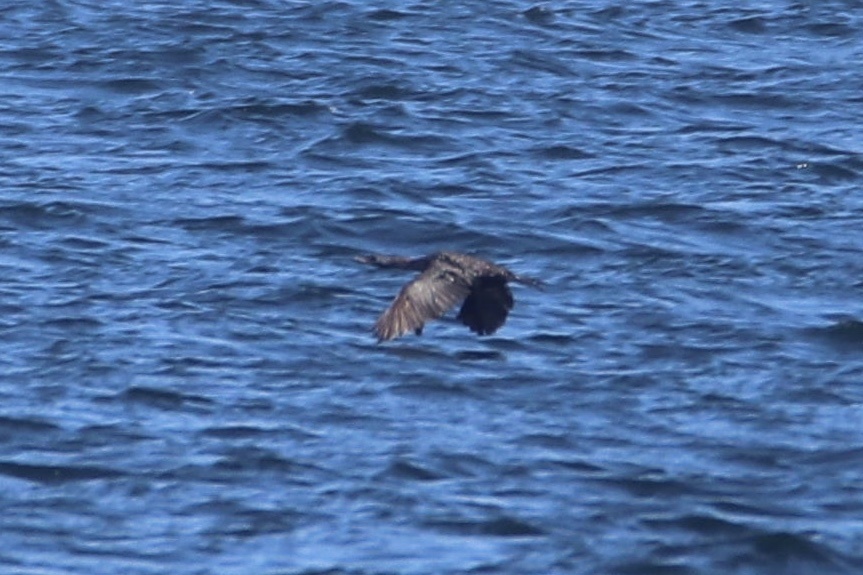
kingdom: Animalia
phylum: Chordata
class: Aves
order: Suliformes
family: Phalacrocoracidae
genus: Phalacrocorax
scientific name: Phalacrocorax pelagicus
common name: Pelagic cormorant
